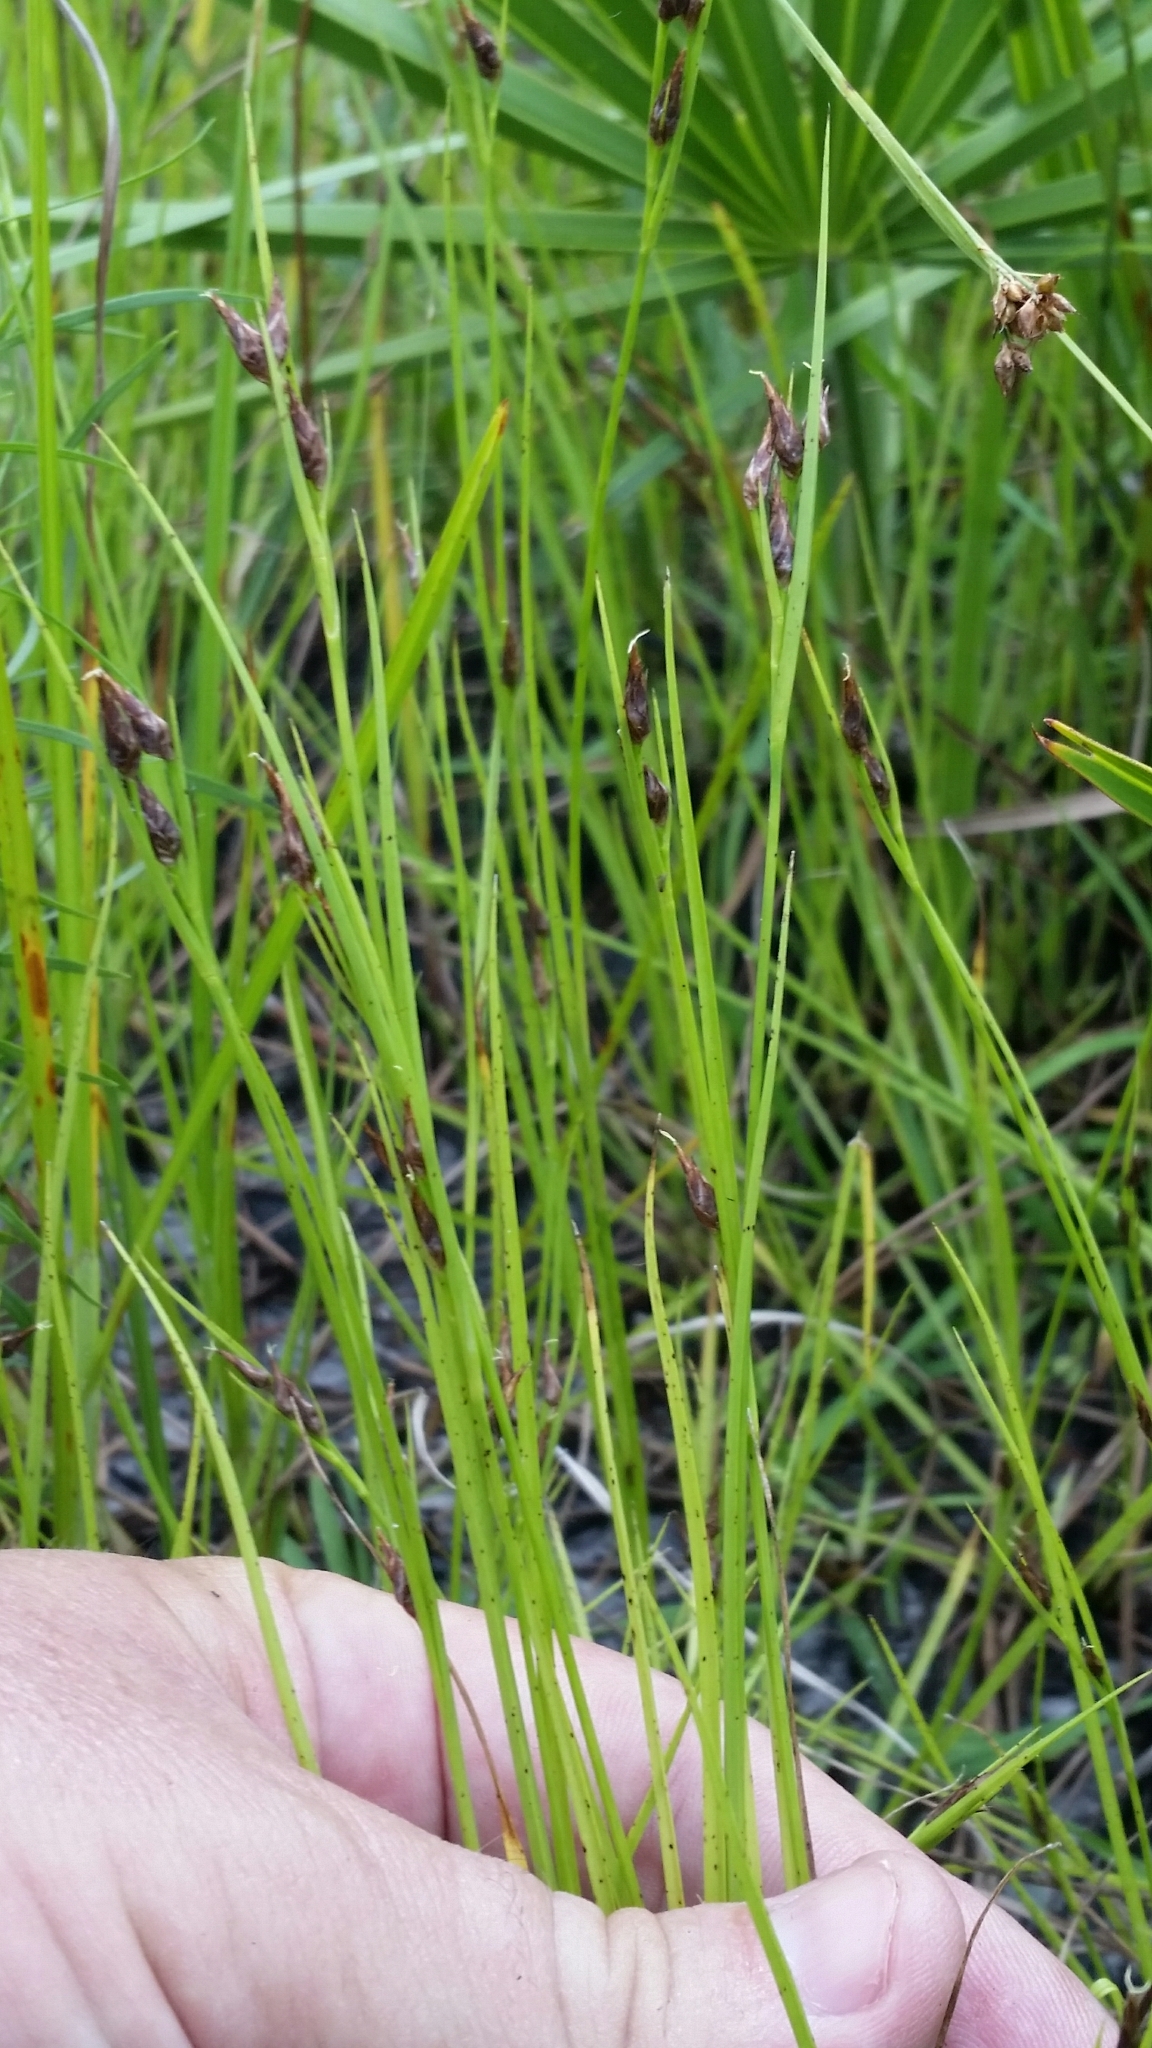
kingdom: Plantae
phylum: Tracheophyta
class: Liliopsida
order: Poales
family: Cyperaceae
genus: Rhynchospora
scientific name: Rhynchospora eximia
